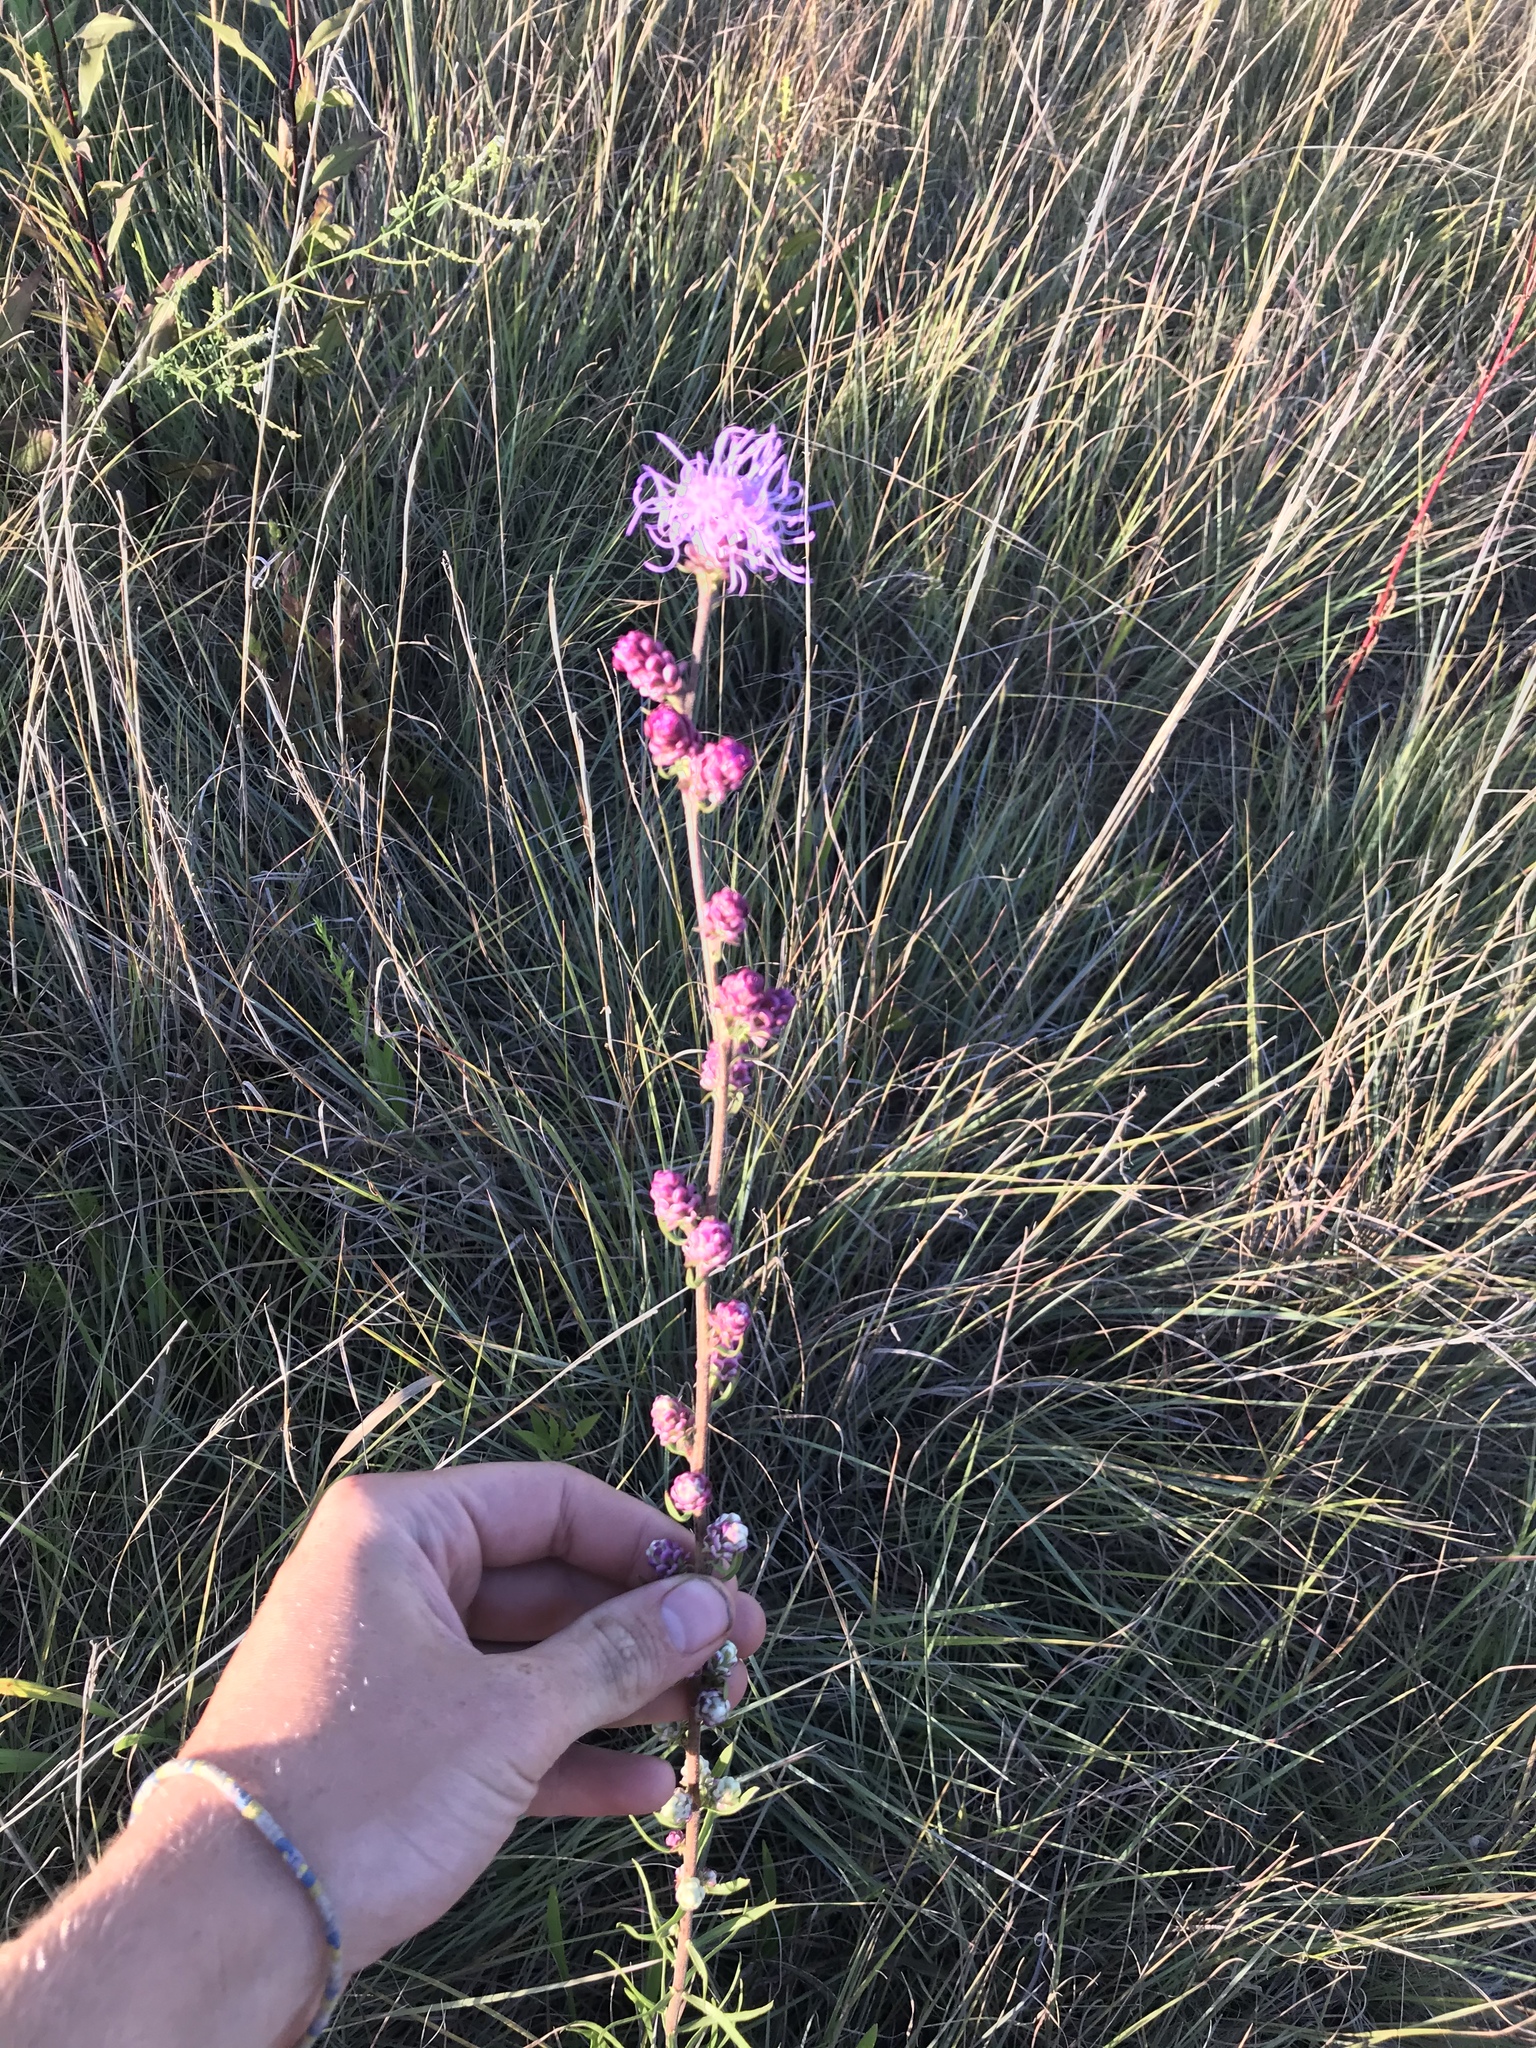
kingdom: Plantae
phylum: Tracheophyta
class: Magnoliopsida
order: Asterales
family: Asteraceae
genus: Liatris
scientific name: Liatris aspera
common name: Lacerate blazing-star
